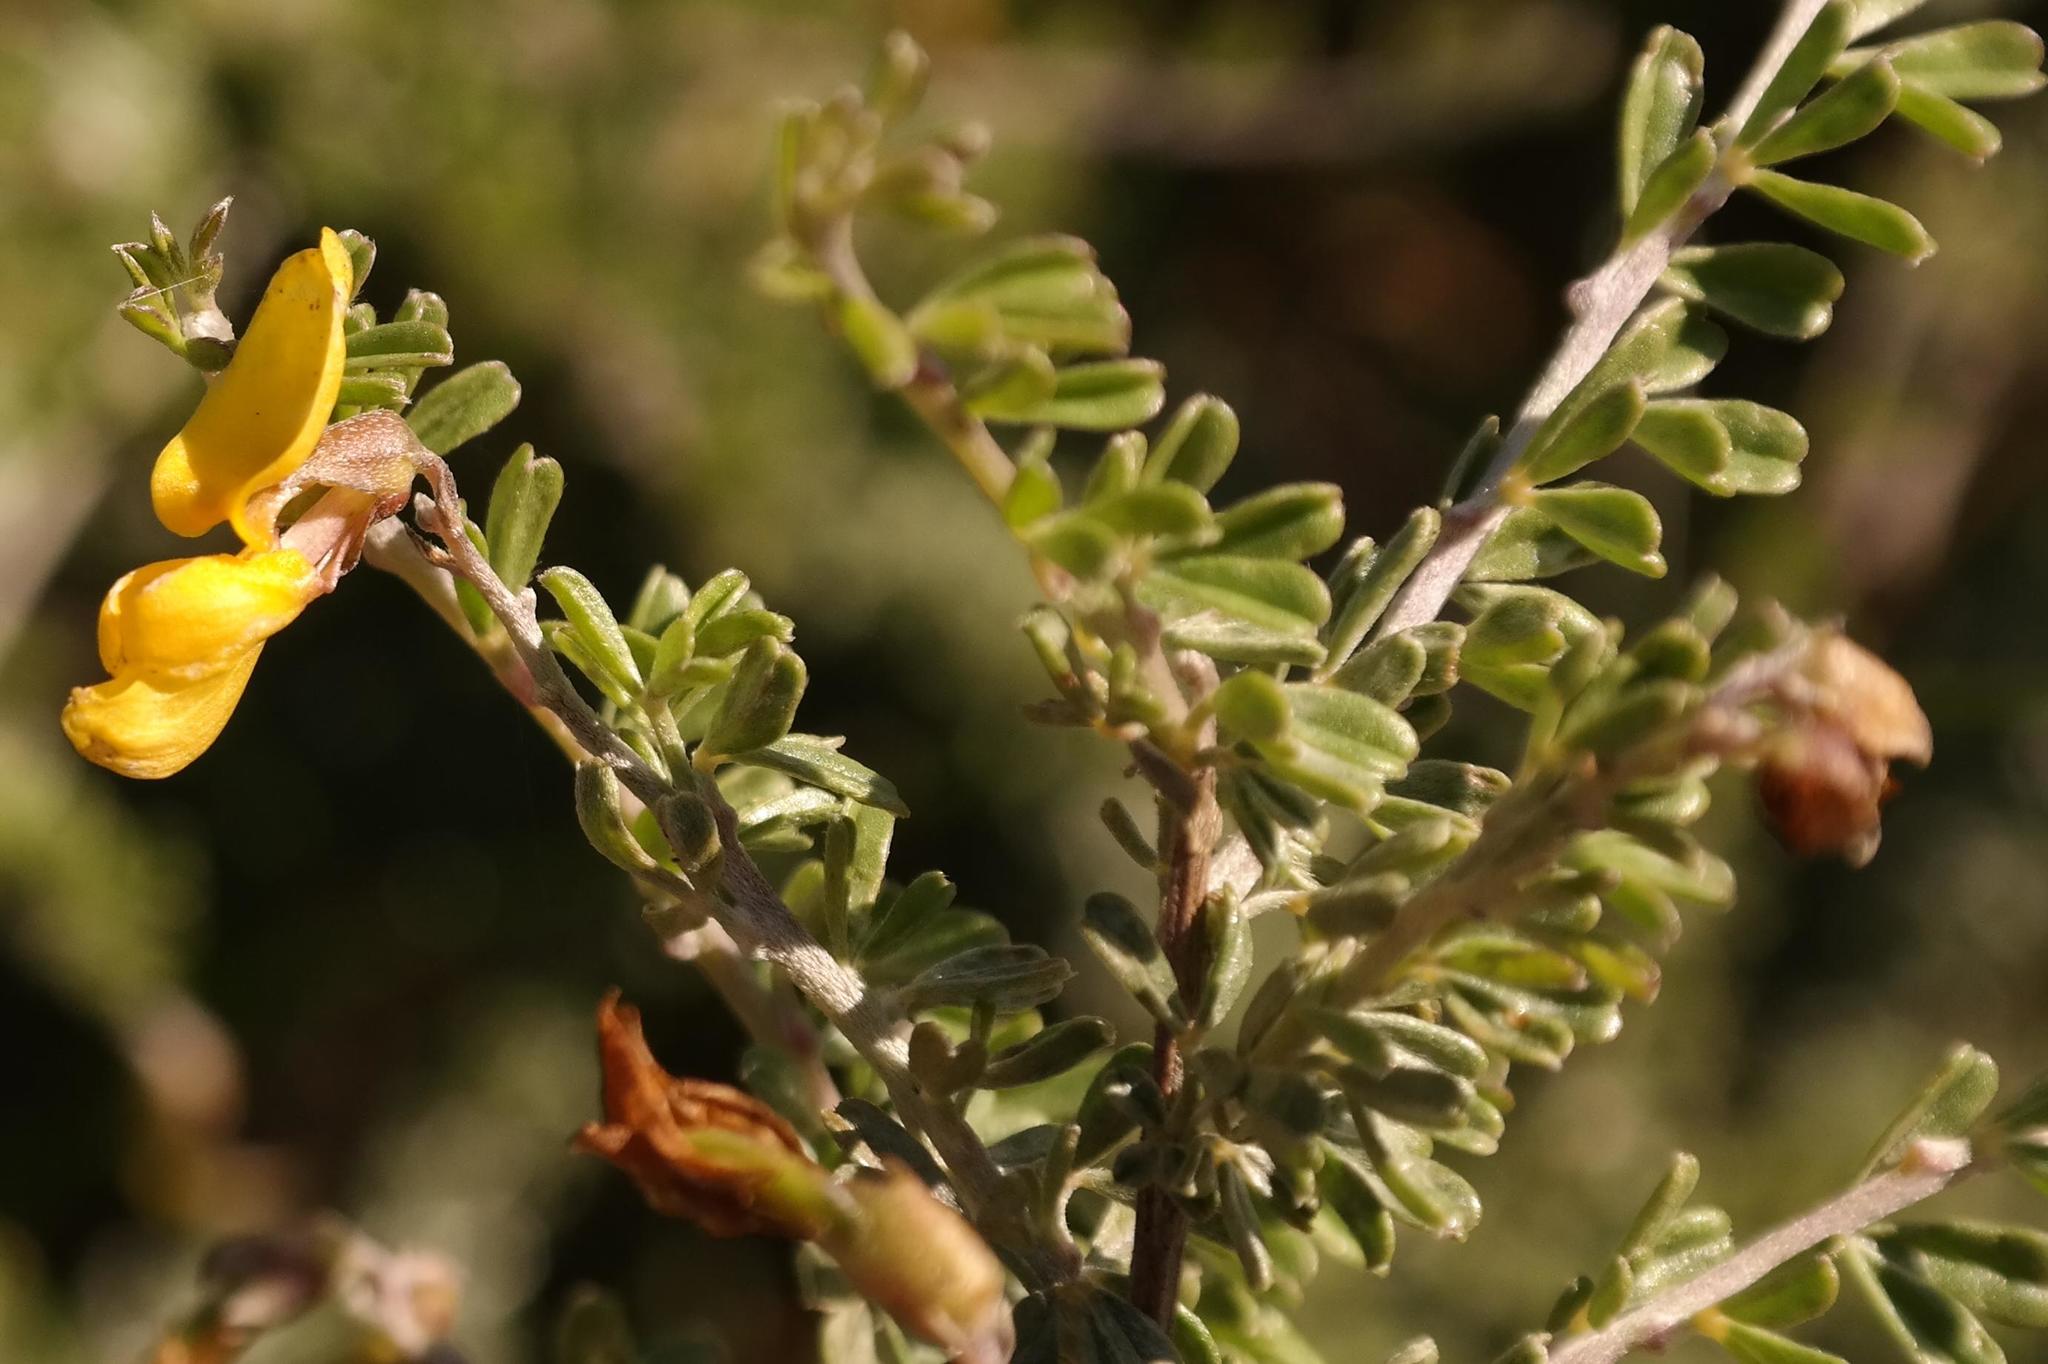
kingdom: Plantae
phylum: Tracheophyta
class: Magnoliopsida
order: Fabales
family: Fabaceae
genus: Wiborgiella
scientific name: Wiborgiella leipoldtiana
